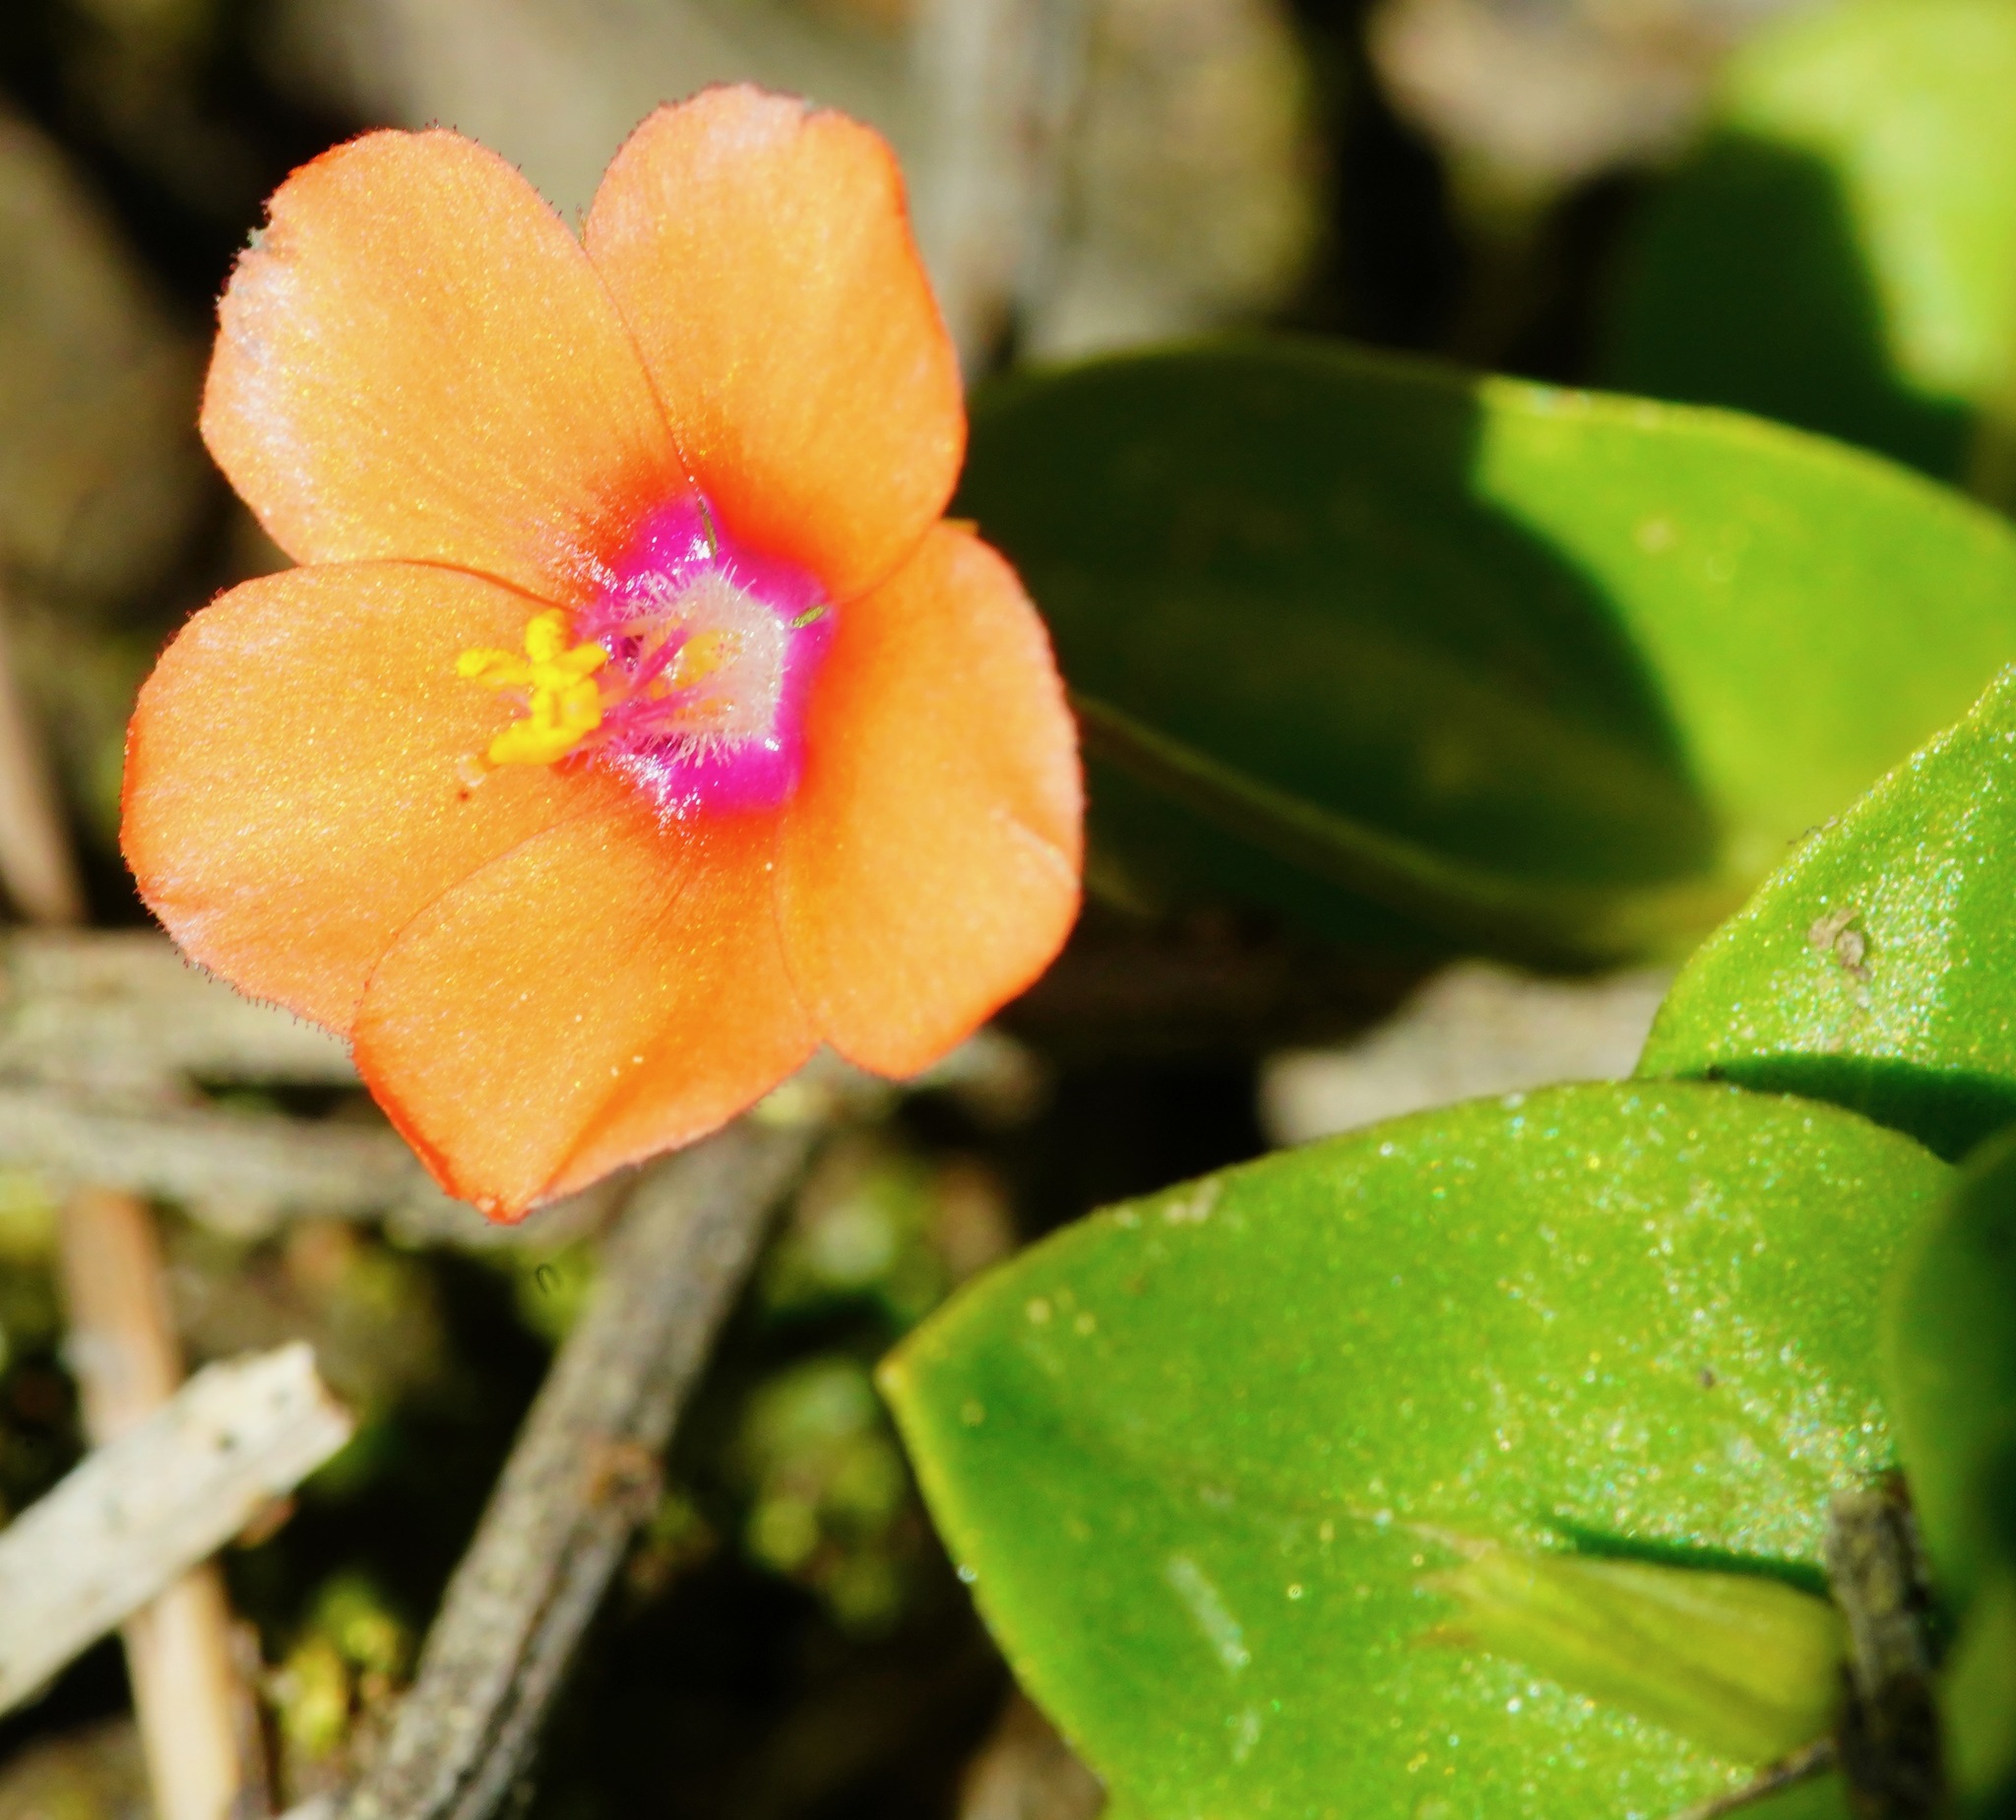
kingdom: Plantae
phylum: Tracheophyta
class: Magnoliopsida
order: Ericales
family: Primulaceae
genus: Lysimachia
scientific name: Lysimachia arvensis
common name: Scarlet pimpernel
